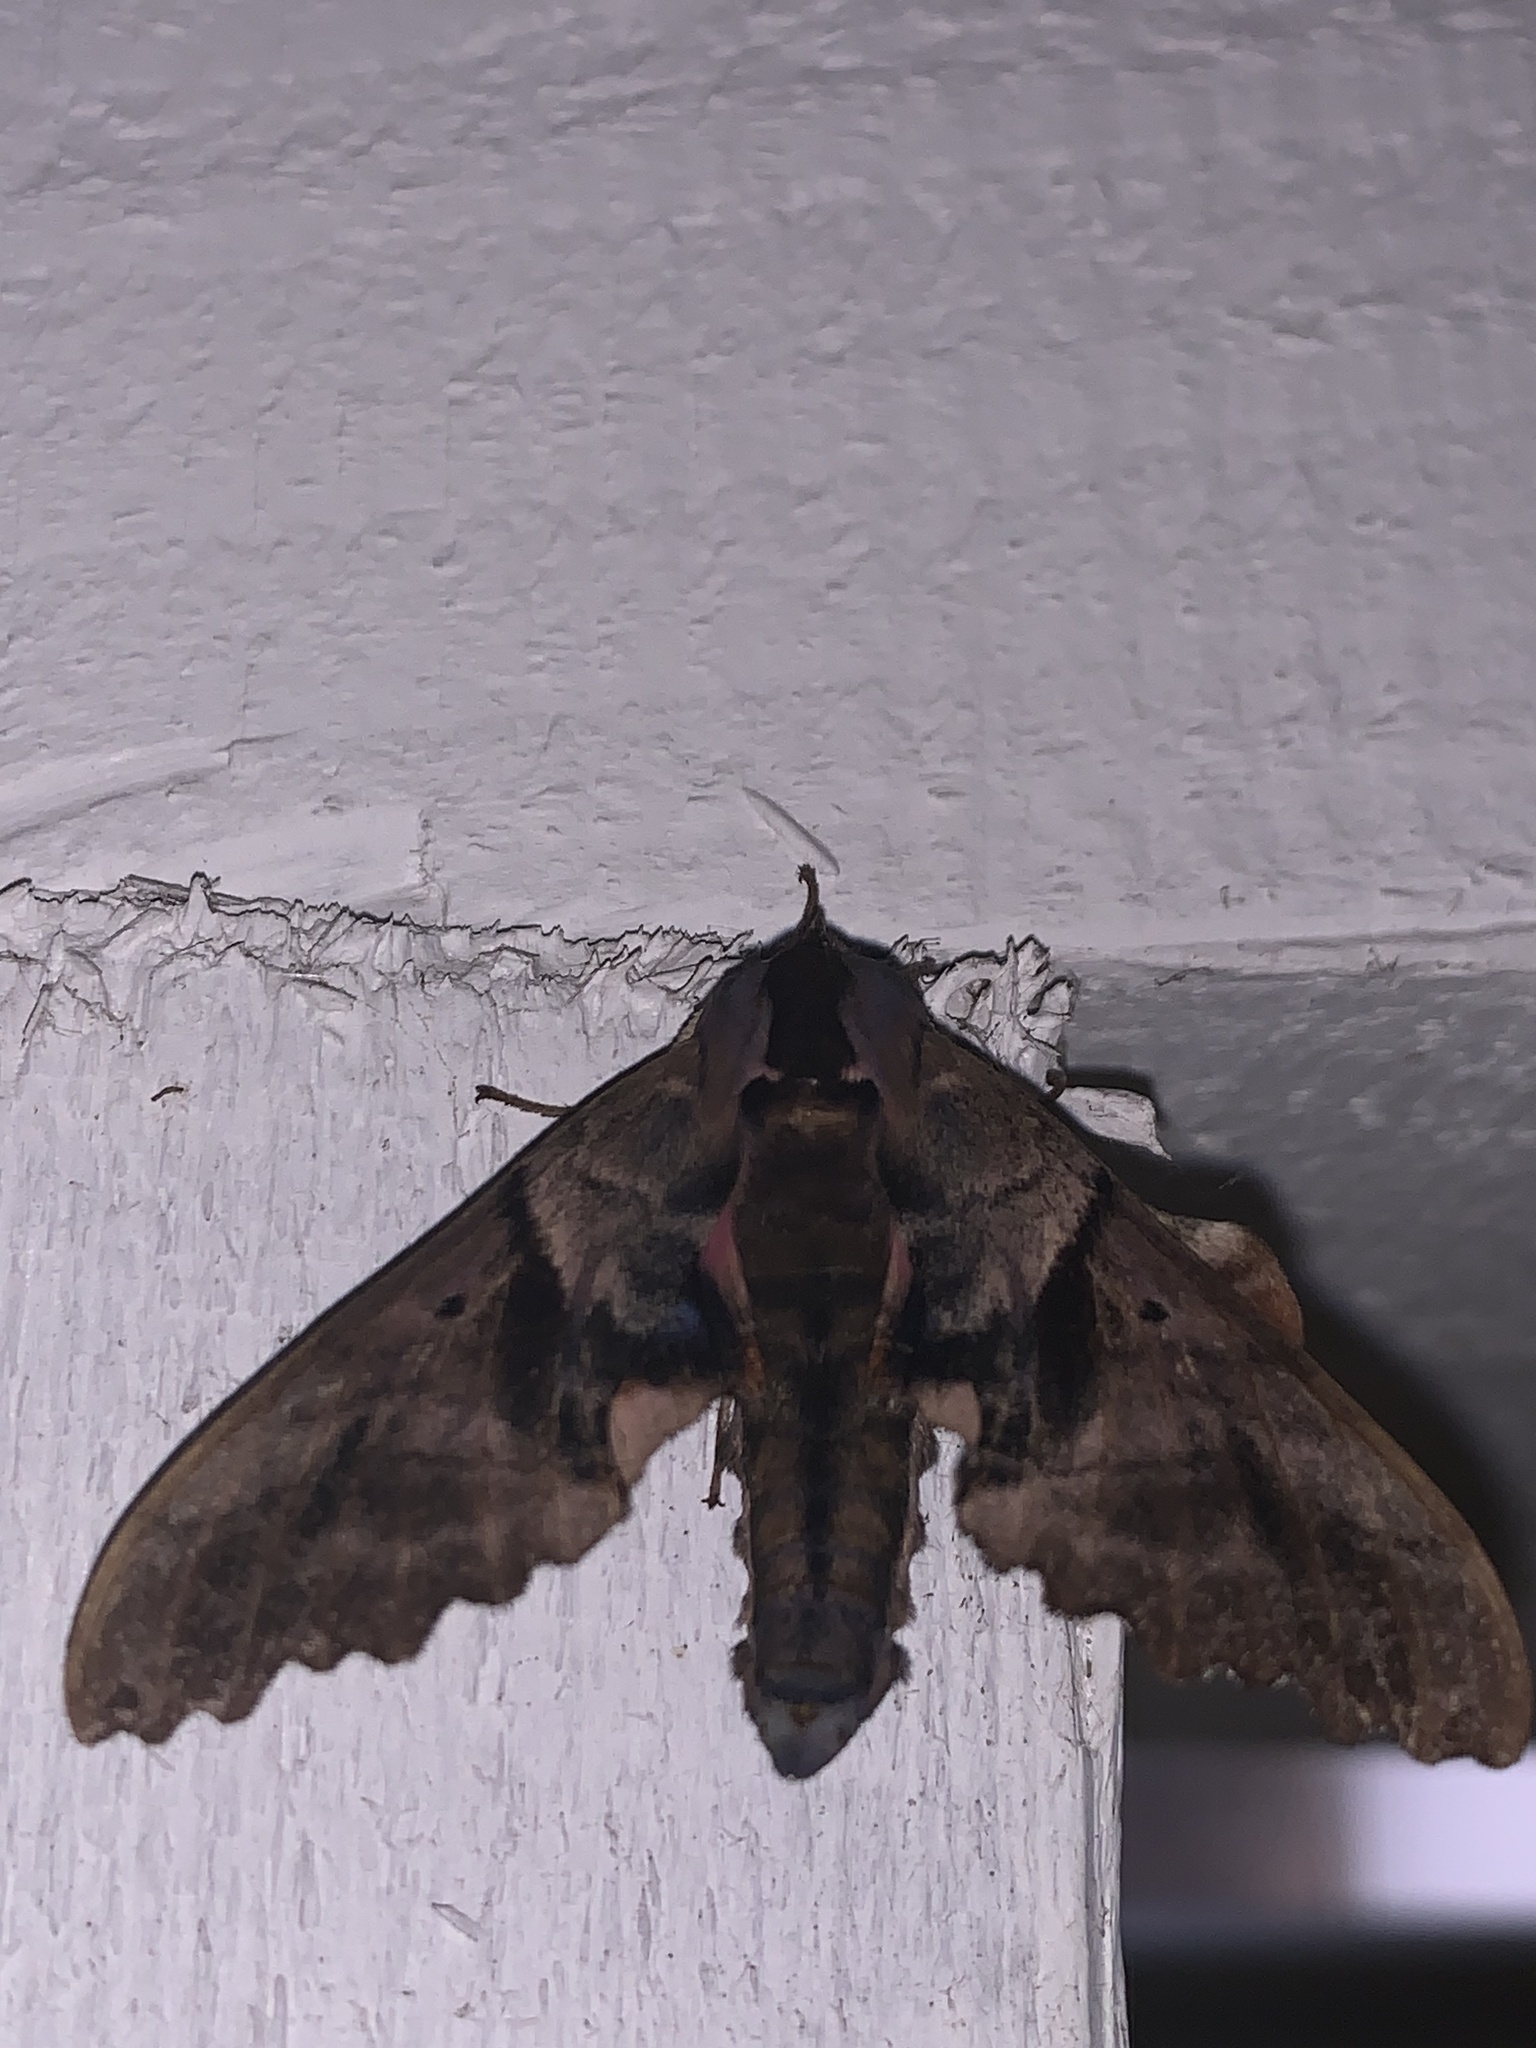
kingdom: Animalia
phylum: Arthropoda
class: Insecta
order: Lepidoptera
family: Sphingidae
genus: Paonias
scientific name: Paonias excaecata
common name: Blind-eyed sphinx
